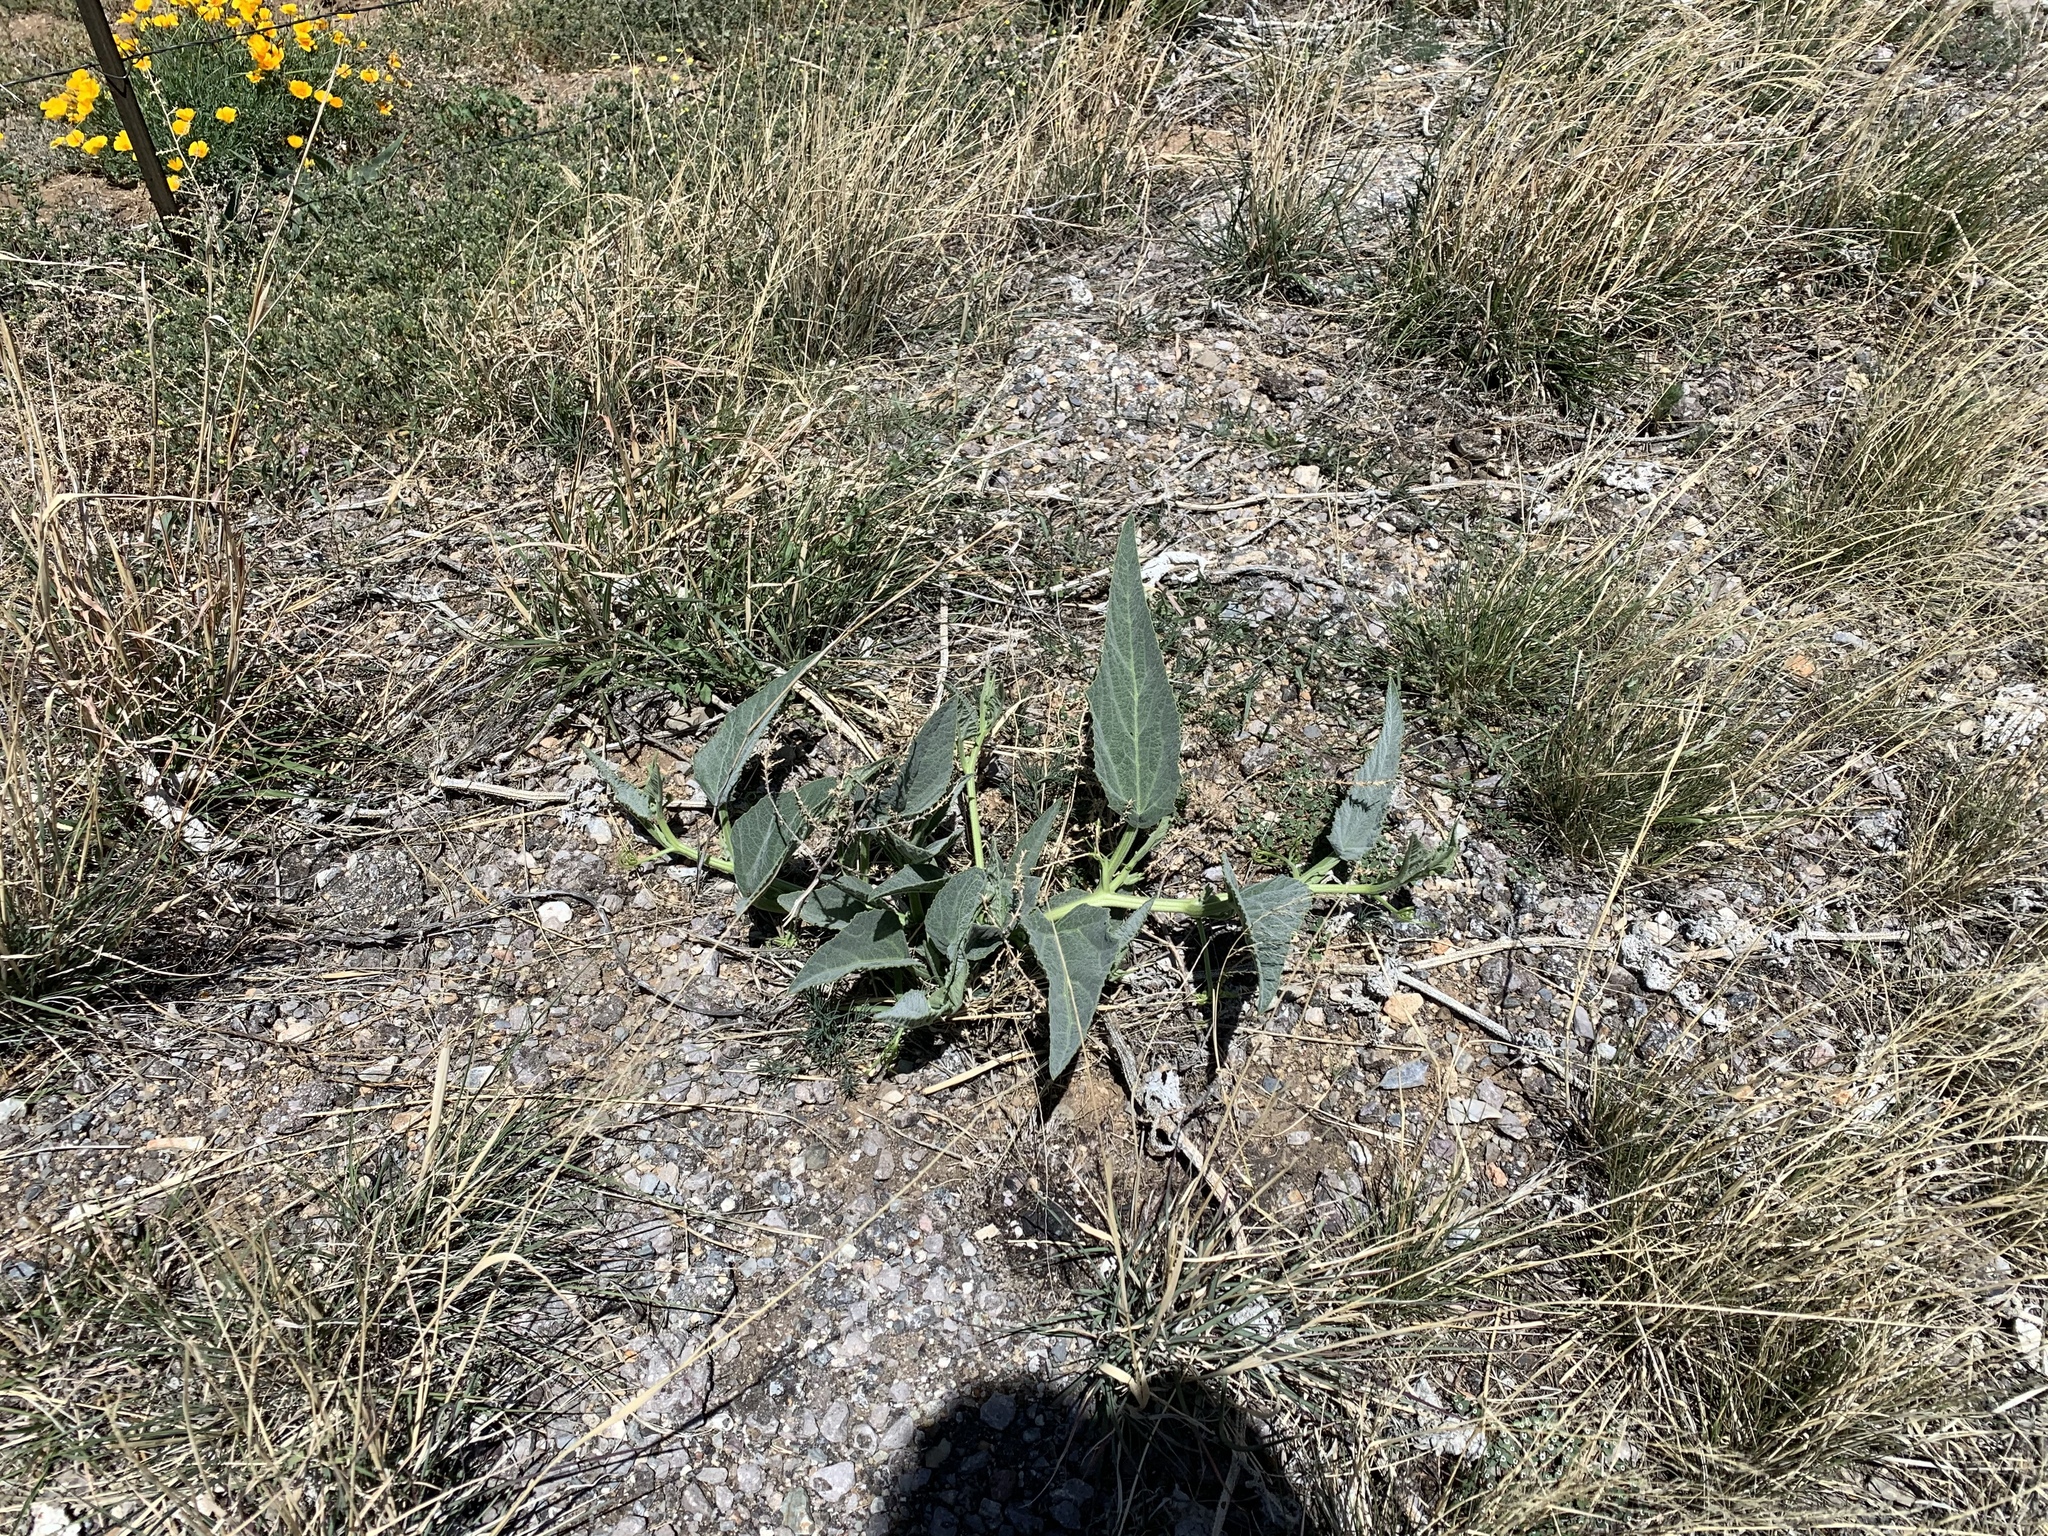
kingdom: Plantae
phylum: Tracheophyta
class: Magnoliopsida
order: Cucurbitales
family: Cucurbitaceae
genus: Cucurbita
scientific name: Cucurbita foetidissima
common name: Buffalo gourd
